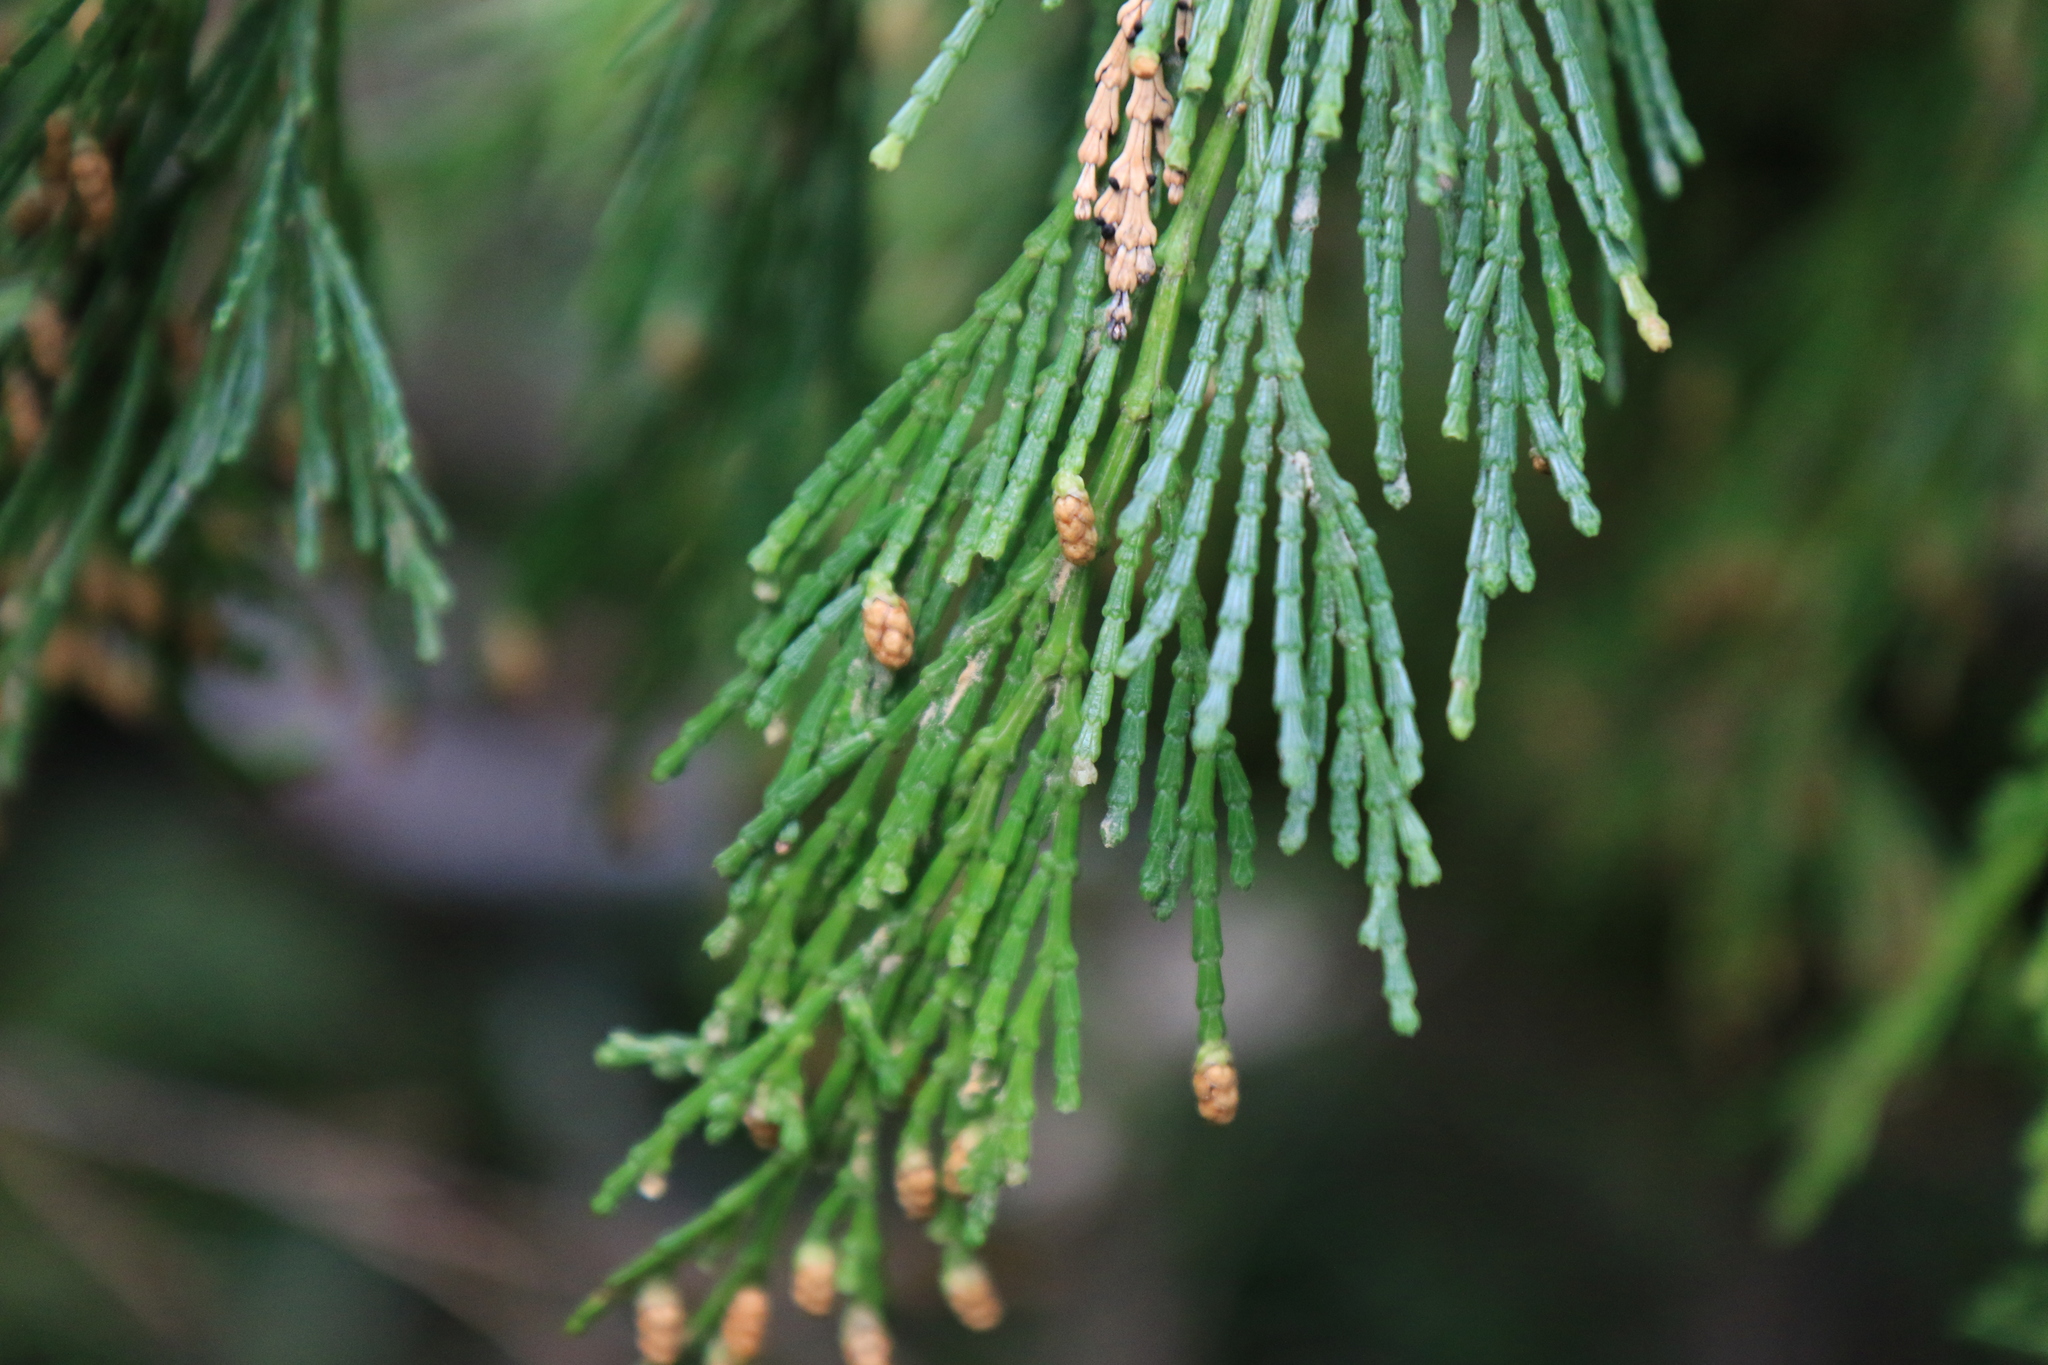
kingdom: Plantae
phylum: Tracheophyta
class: Pinopsida
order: Pinales
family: Cupressaceae
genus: Calocedrus
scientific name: Calocedrus decurrens
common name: Californian incense-cedar
